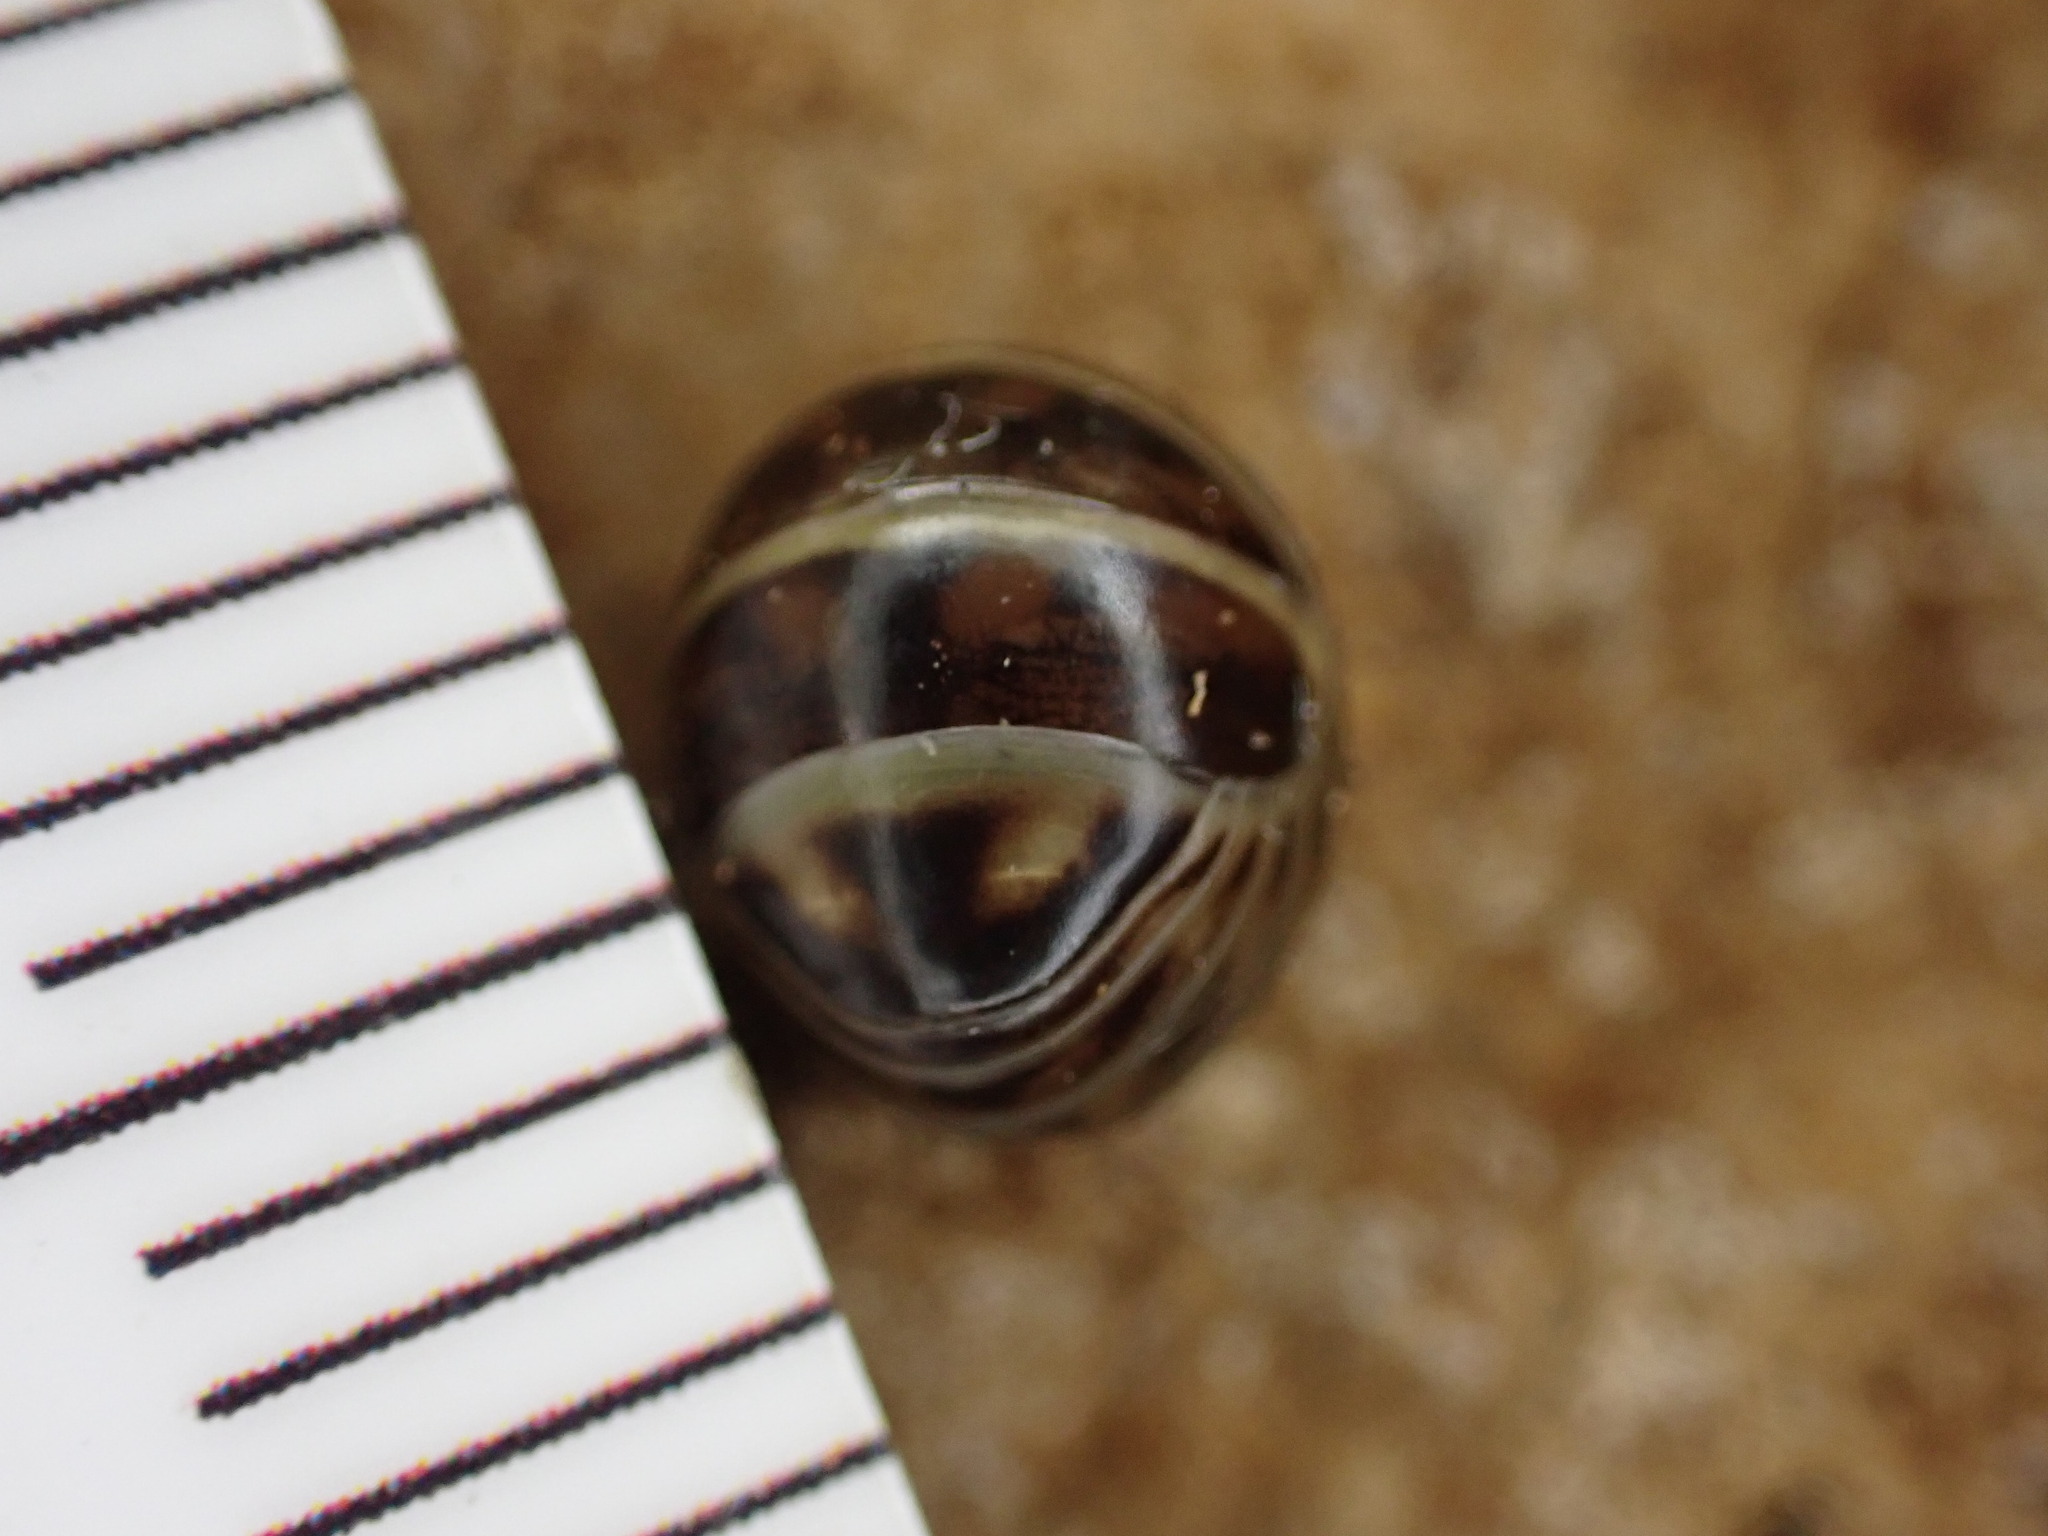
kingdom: Animalia
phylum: Arthropoda
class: Diplopoda
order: Glomerida
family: Glomeridae
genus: Glomeris
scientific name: Glomeris marginata
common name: Bordered pill millipede
